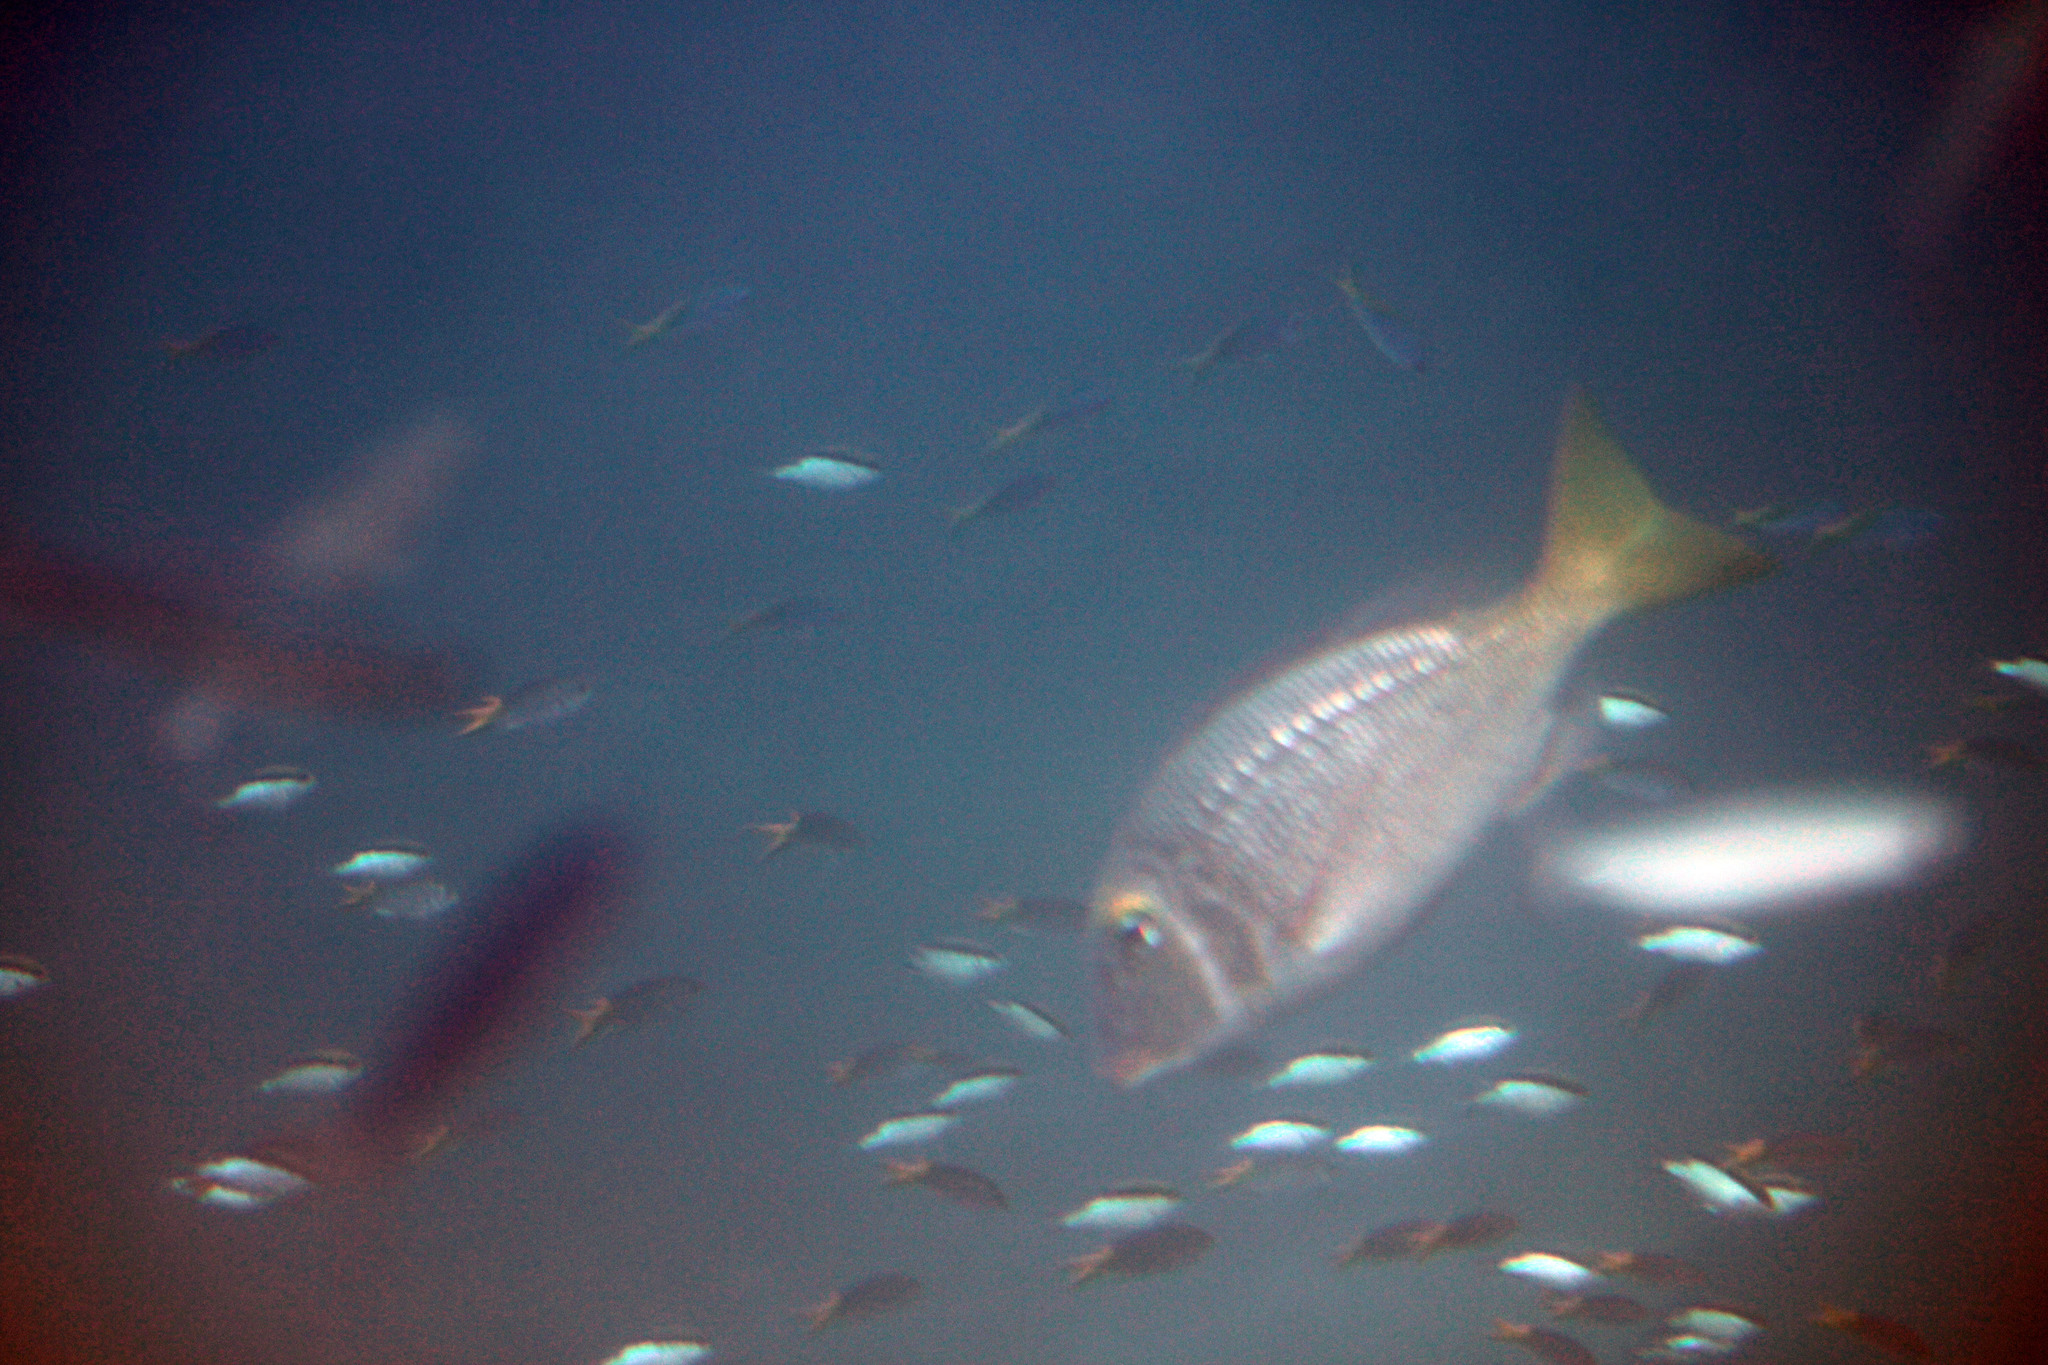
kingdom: Animalia
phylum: Chordata
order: Perciformes
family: Pomacentridae
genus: Chromis
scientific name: Chromis nitida
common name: Barrier reef chromis
